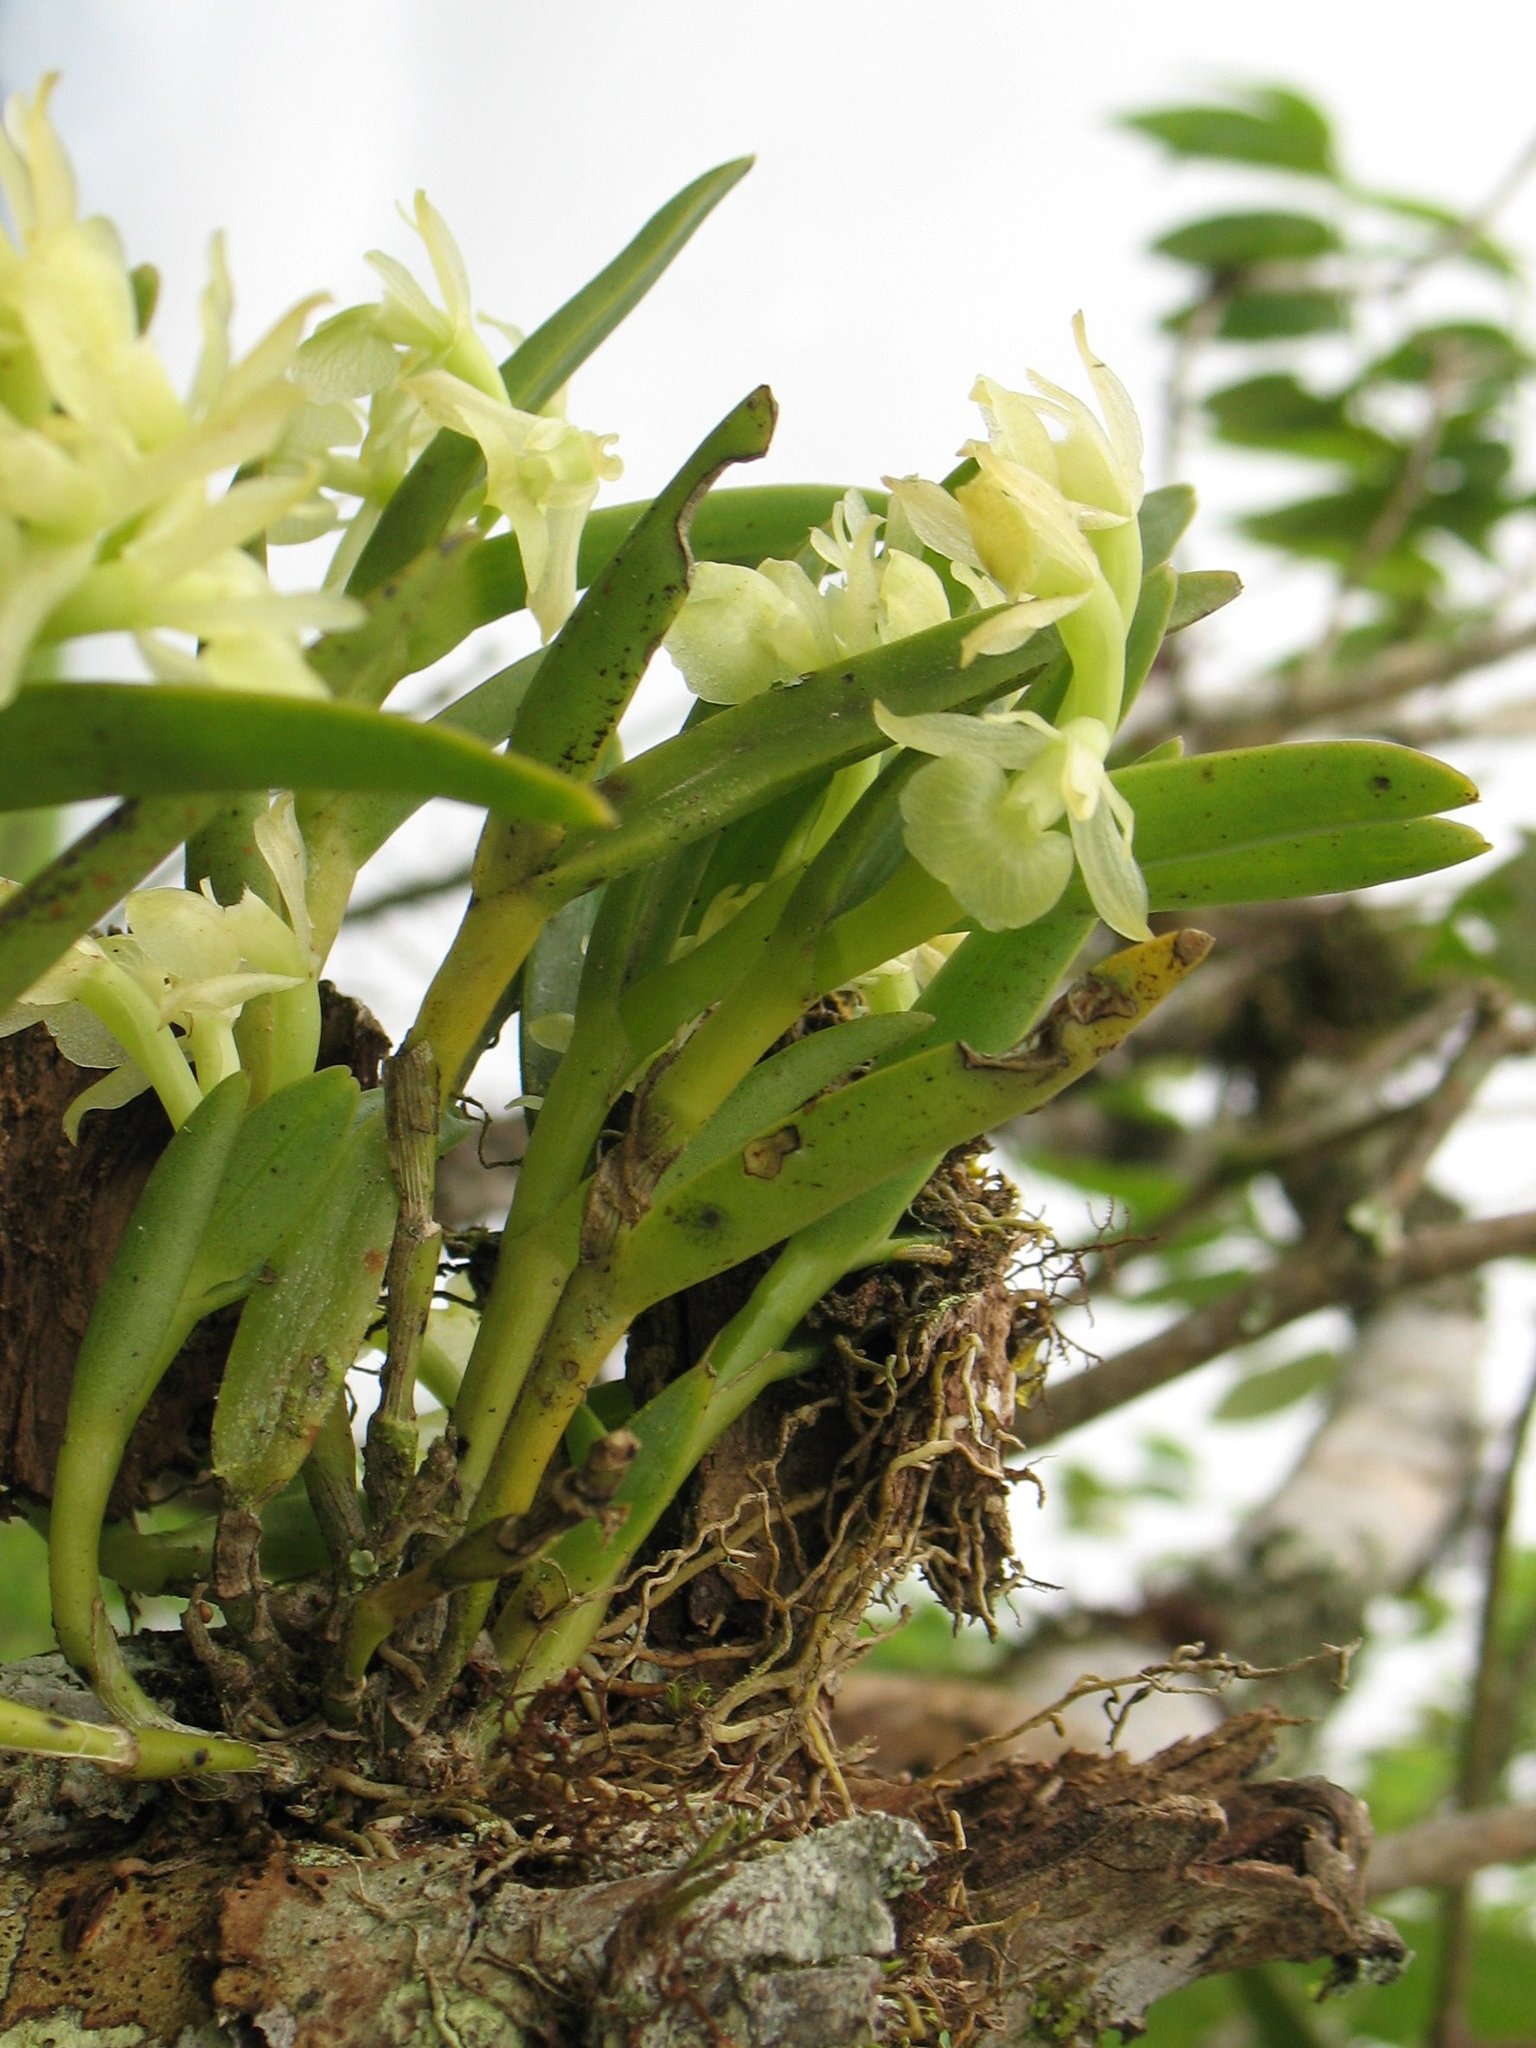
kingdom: Plantae
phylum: Tracheophyta
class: Liliopsida
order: Asparagales
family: Orchidaceae
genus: Epidendrum
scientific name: Epidendrum scharfii
